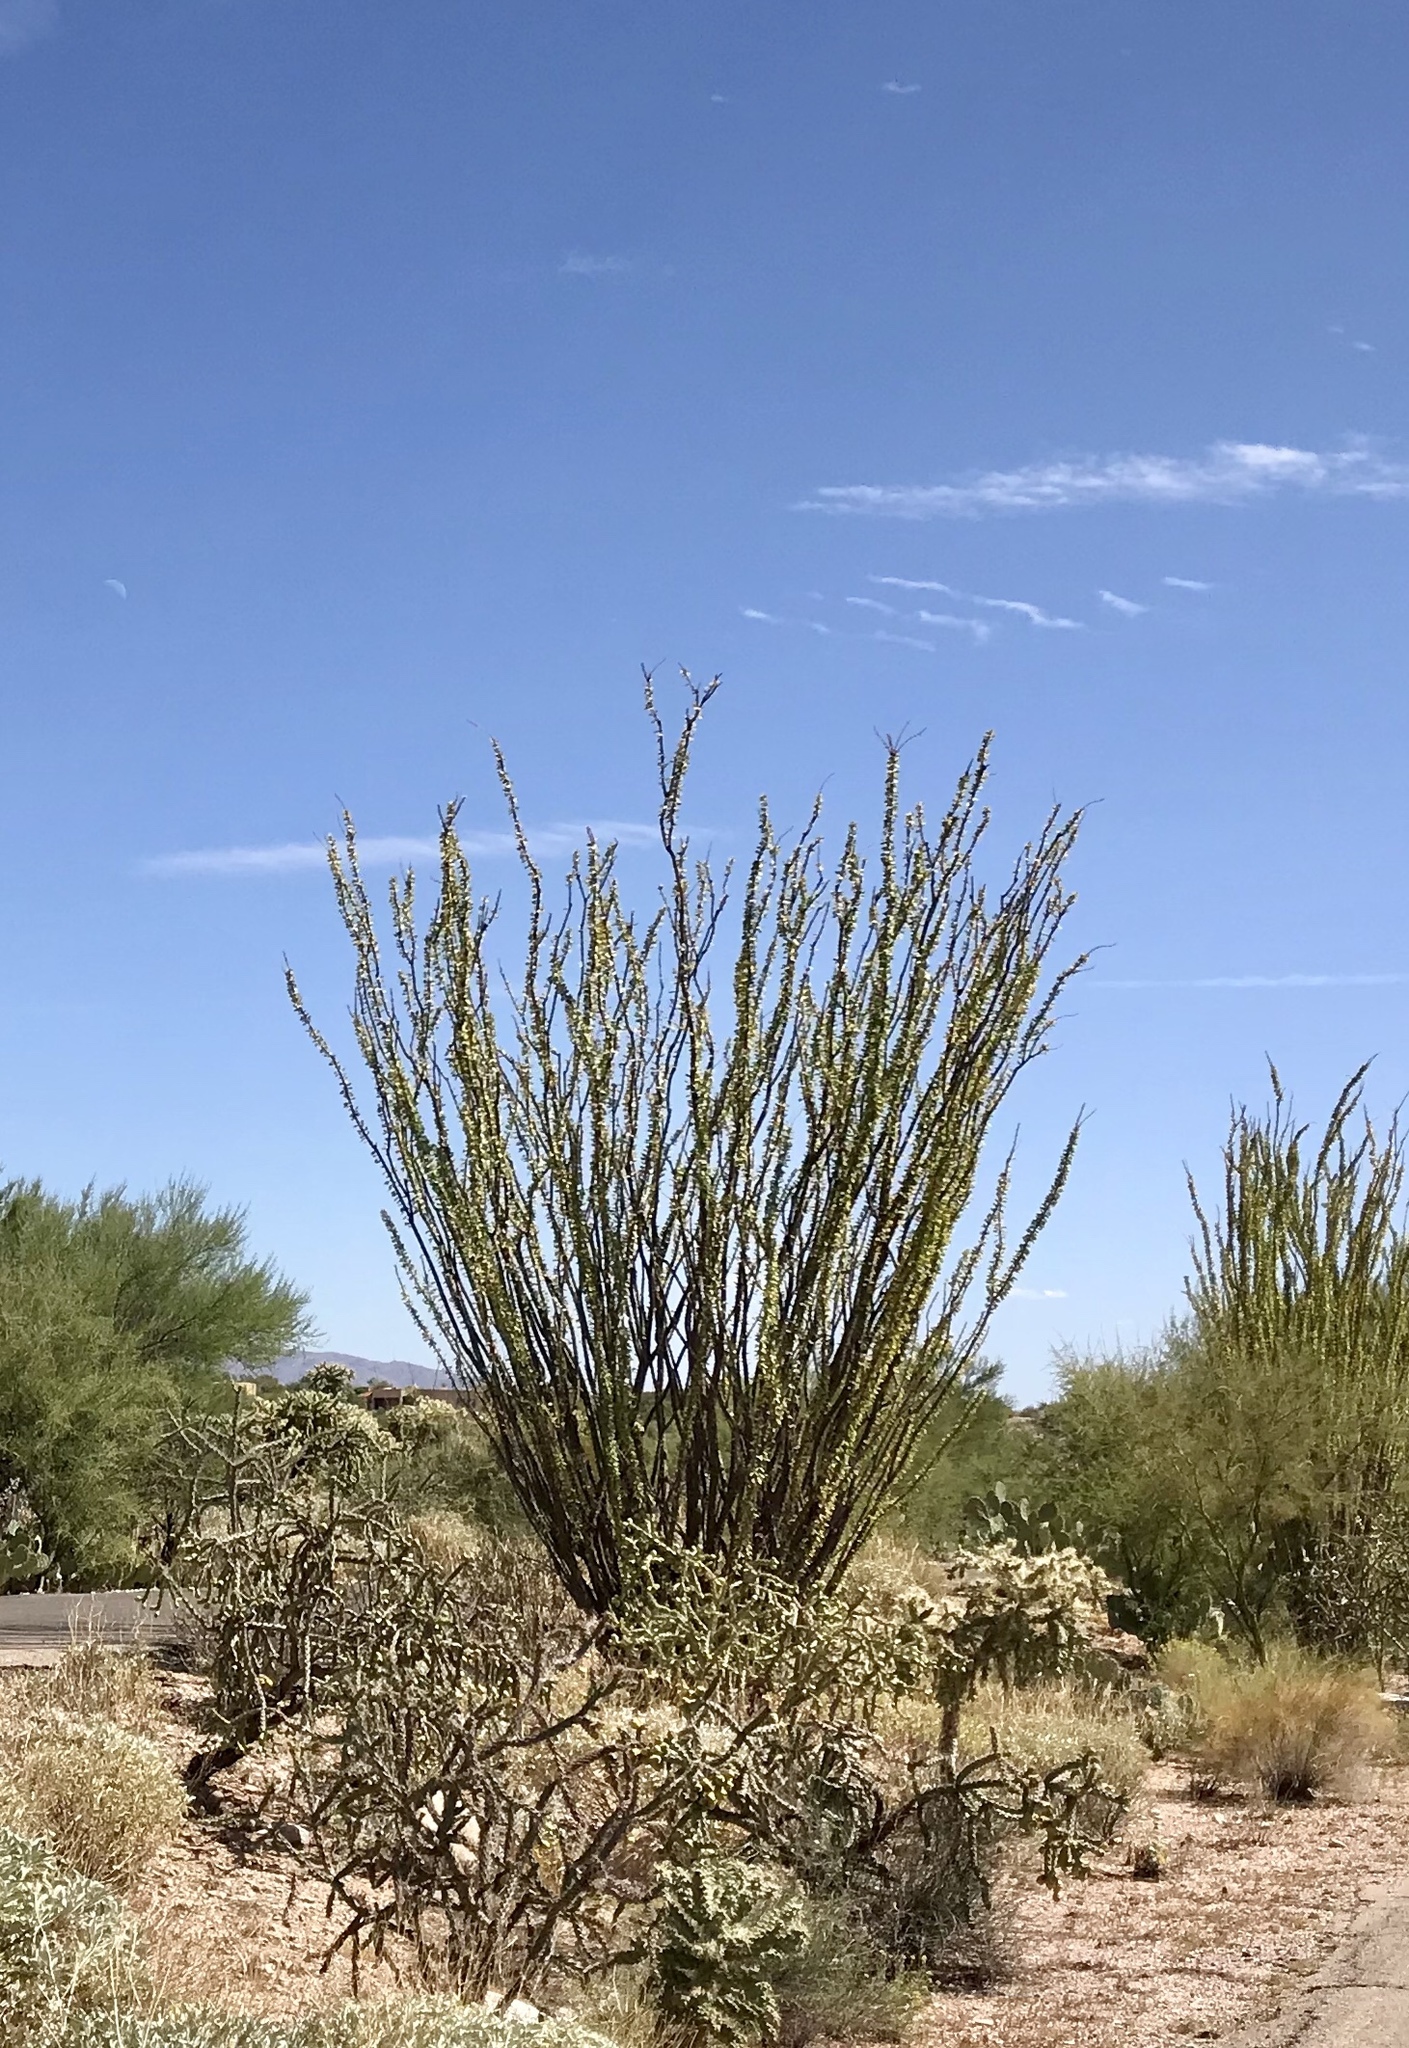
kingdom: Plantae
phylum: Tracheophyta
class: Magnoliopsida
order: Ericales
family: Fouquieriaceae
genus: Fouquieria
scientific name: Fouquieria splendens
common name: Vine-cactus
